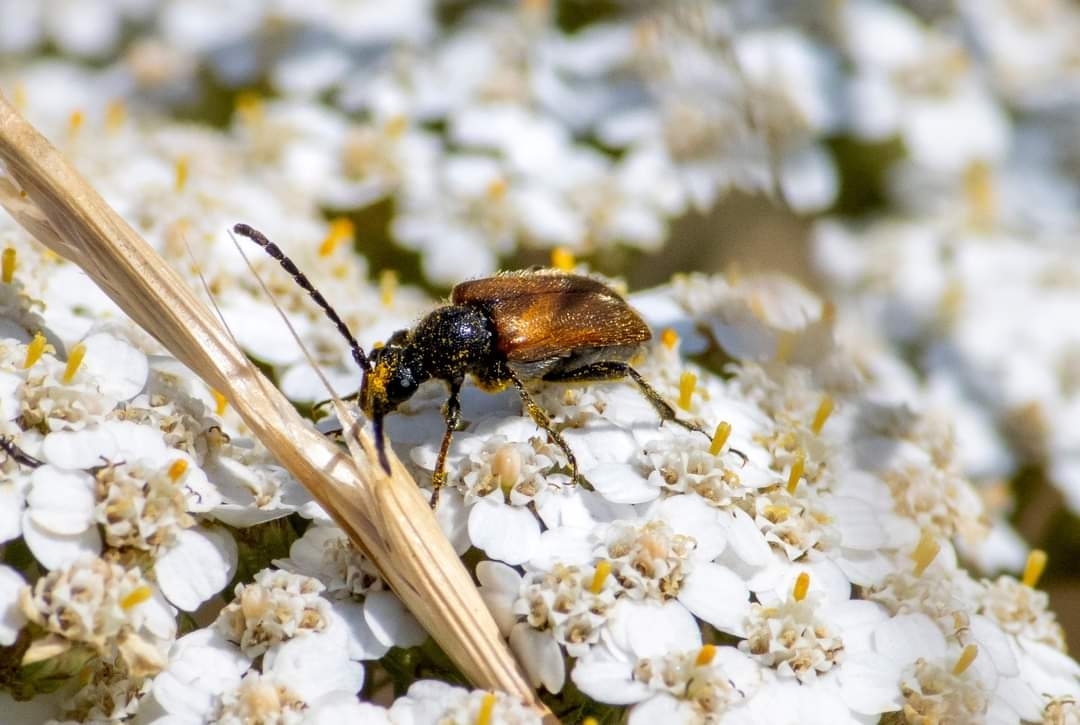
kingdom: Animalia
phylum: Arthropoda
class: Insecta
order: Coleoptera
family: Cerambycidae
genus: Pseudovadonia
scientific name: Pseudovadonia livida
